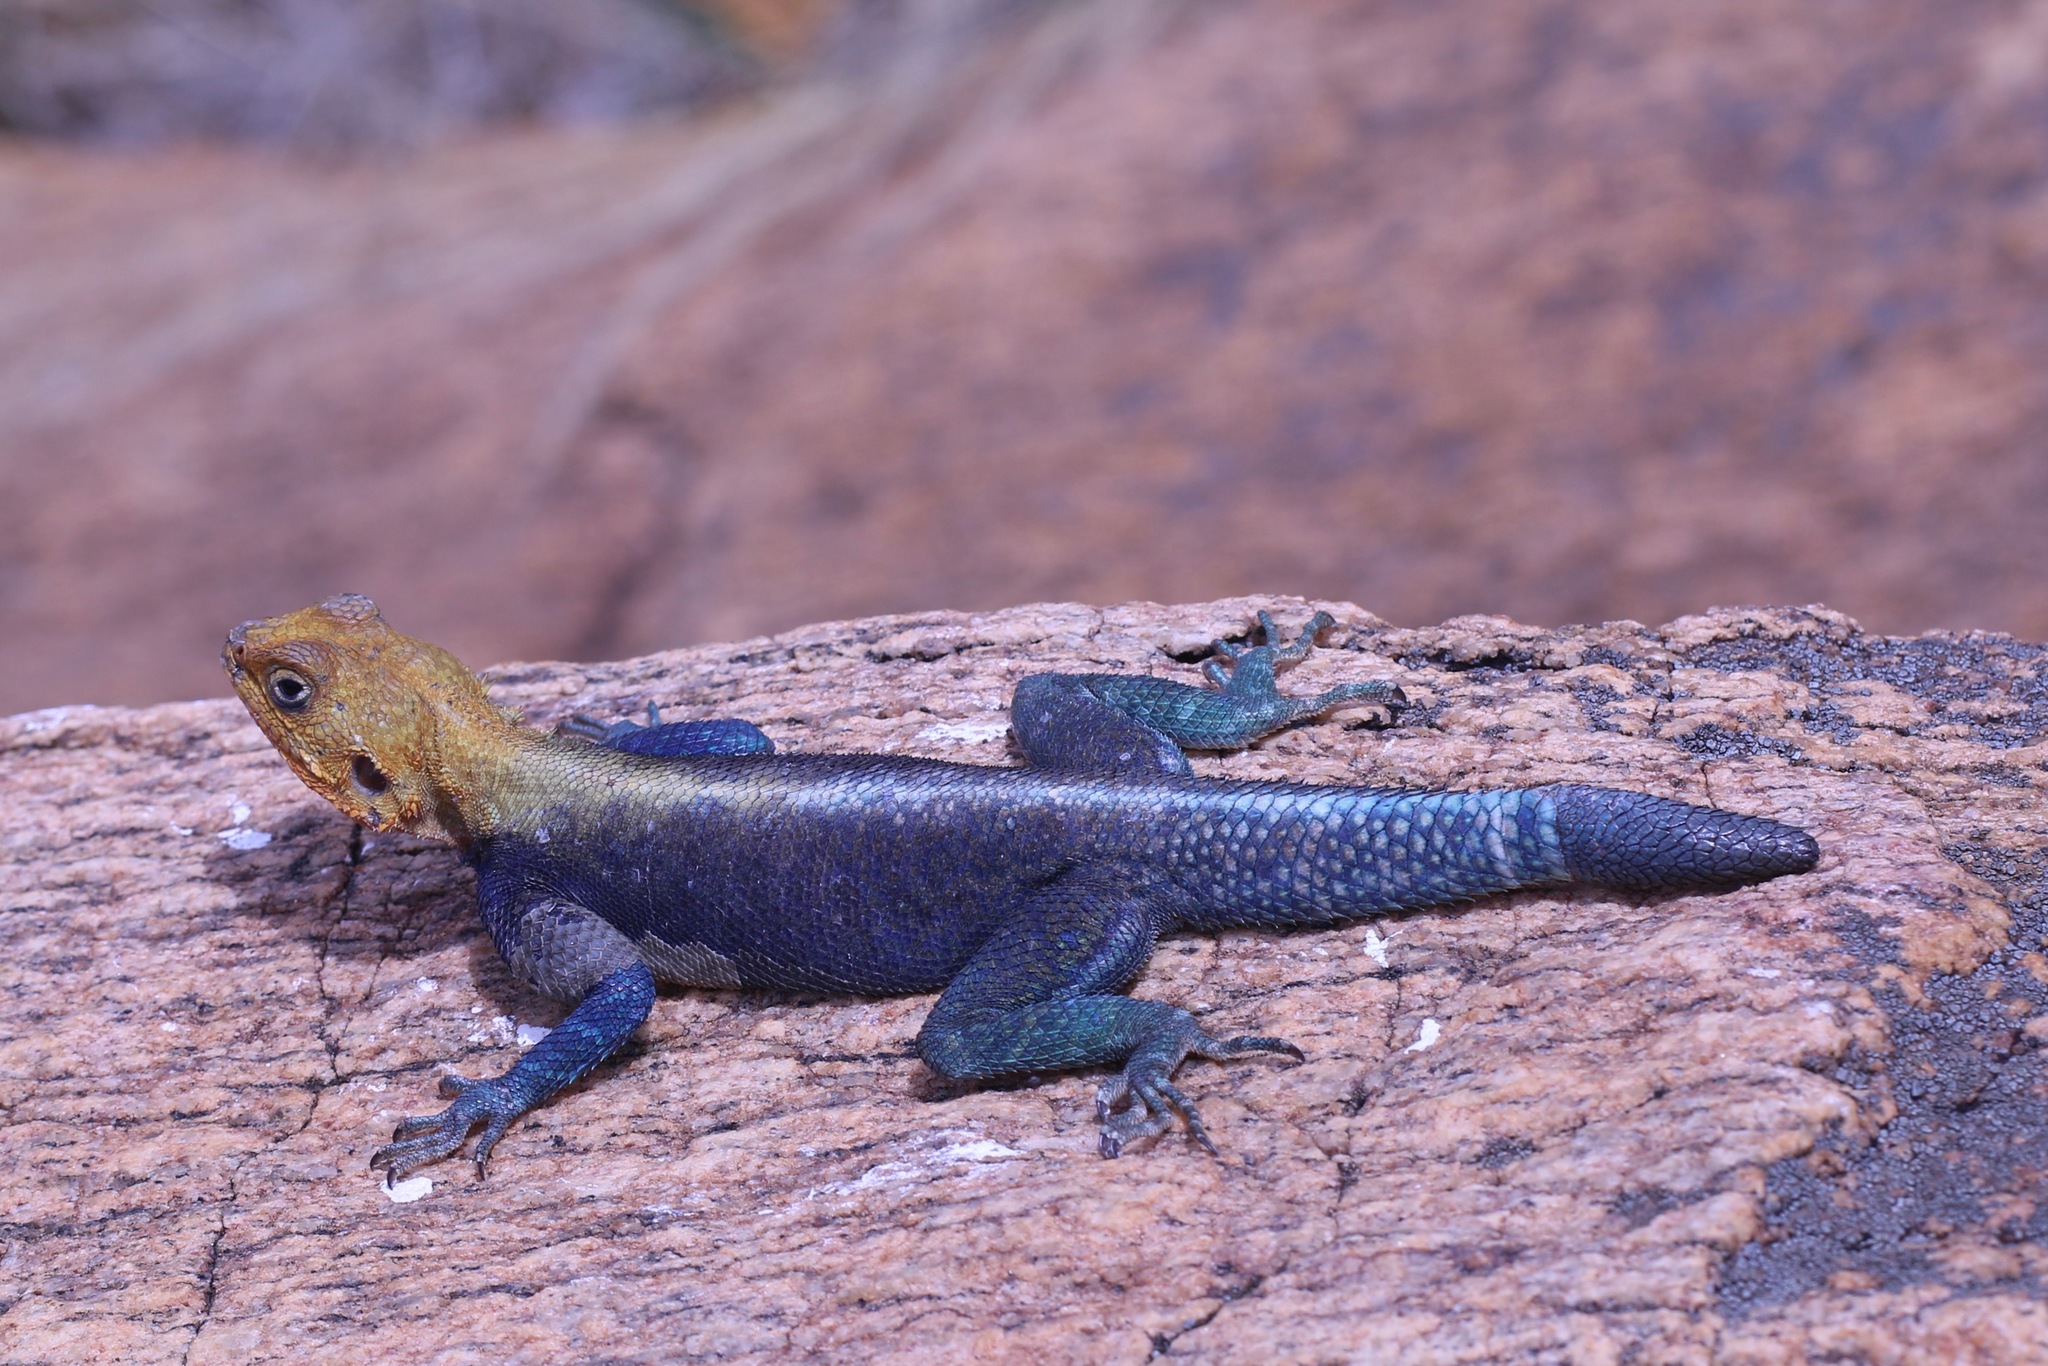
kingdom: Animalia
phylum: Chordata
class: Squamata
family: Agamidae
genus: Agama
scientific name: Agama lionotus
